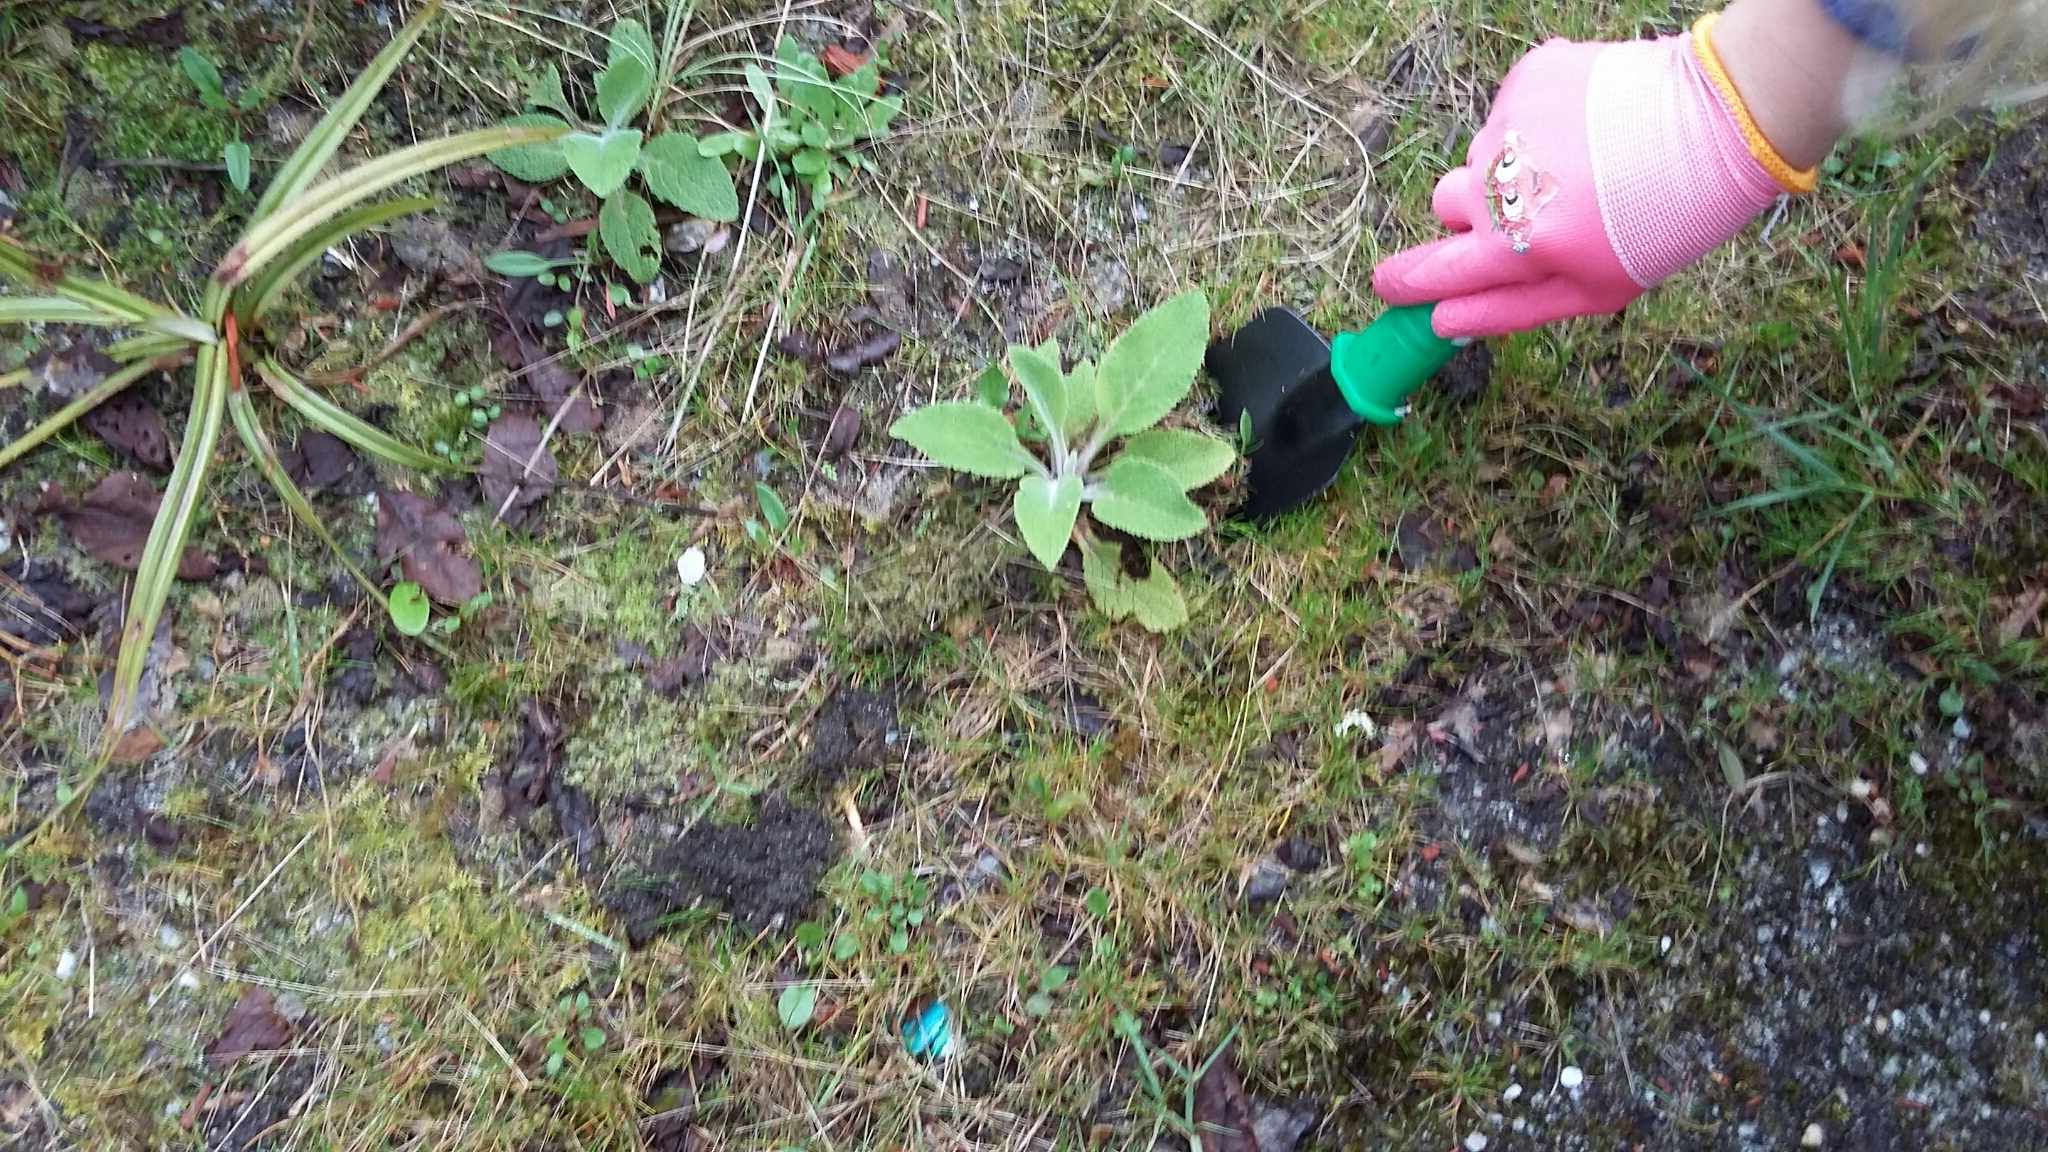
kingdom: Plantae
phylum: Tracheophyta
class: Magnoliopsida
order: Lamiales
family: Plantaginaceae
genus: Digitalis
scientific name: Digitalis purpurea
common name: Foxglove
